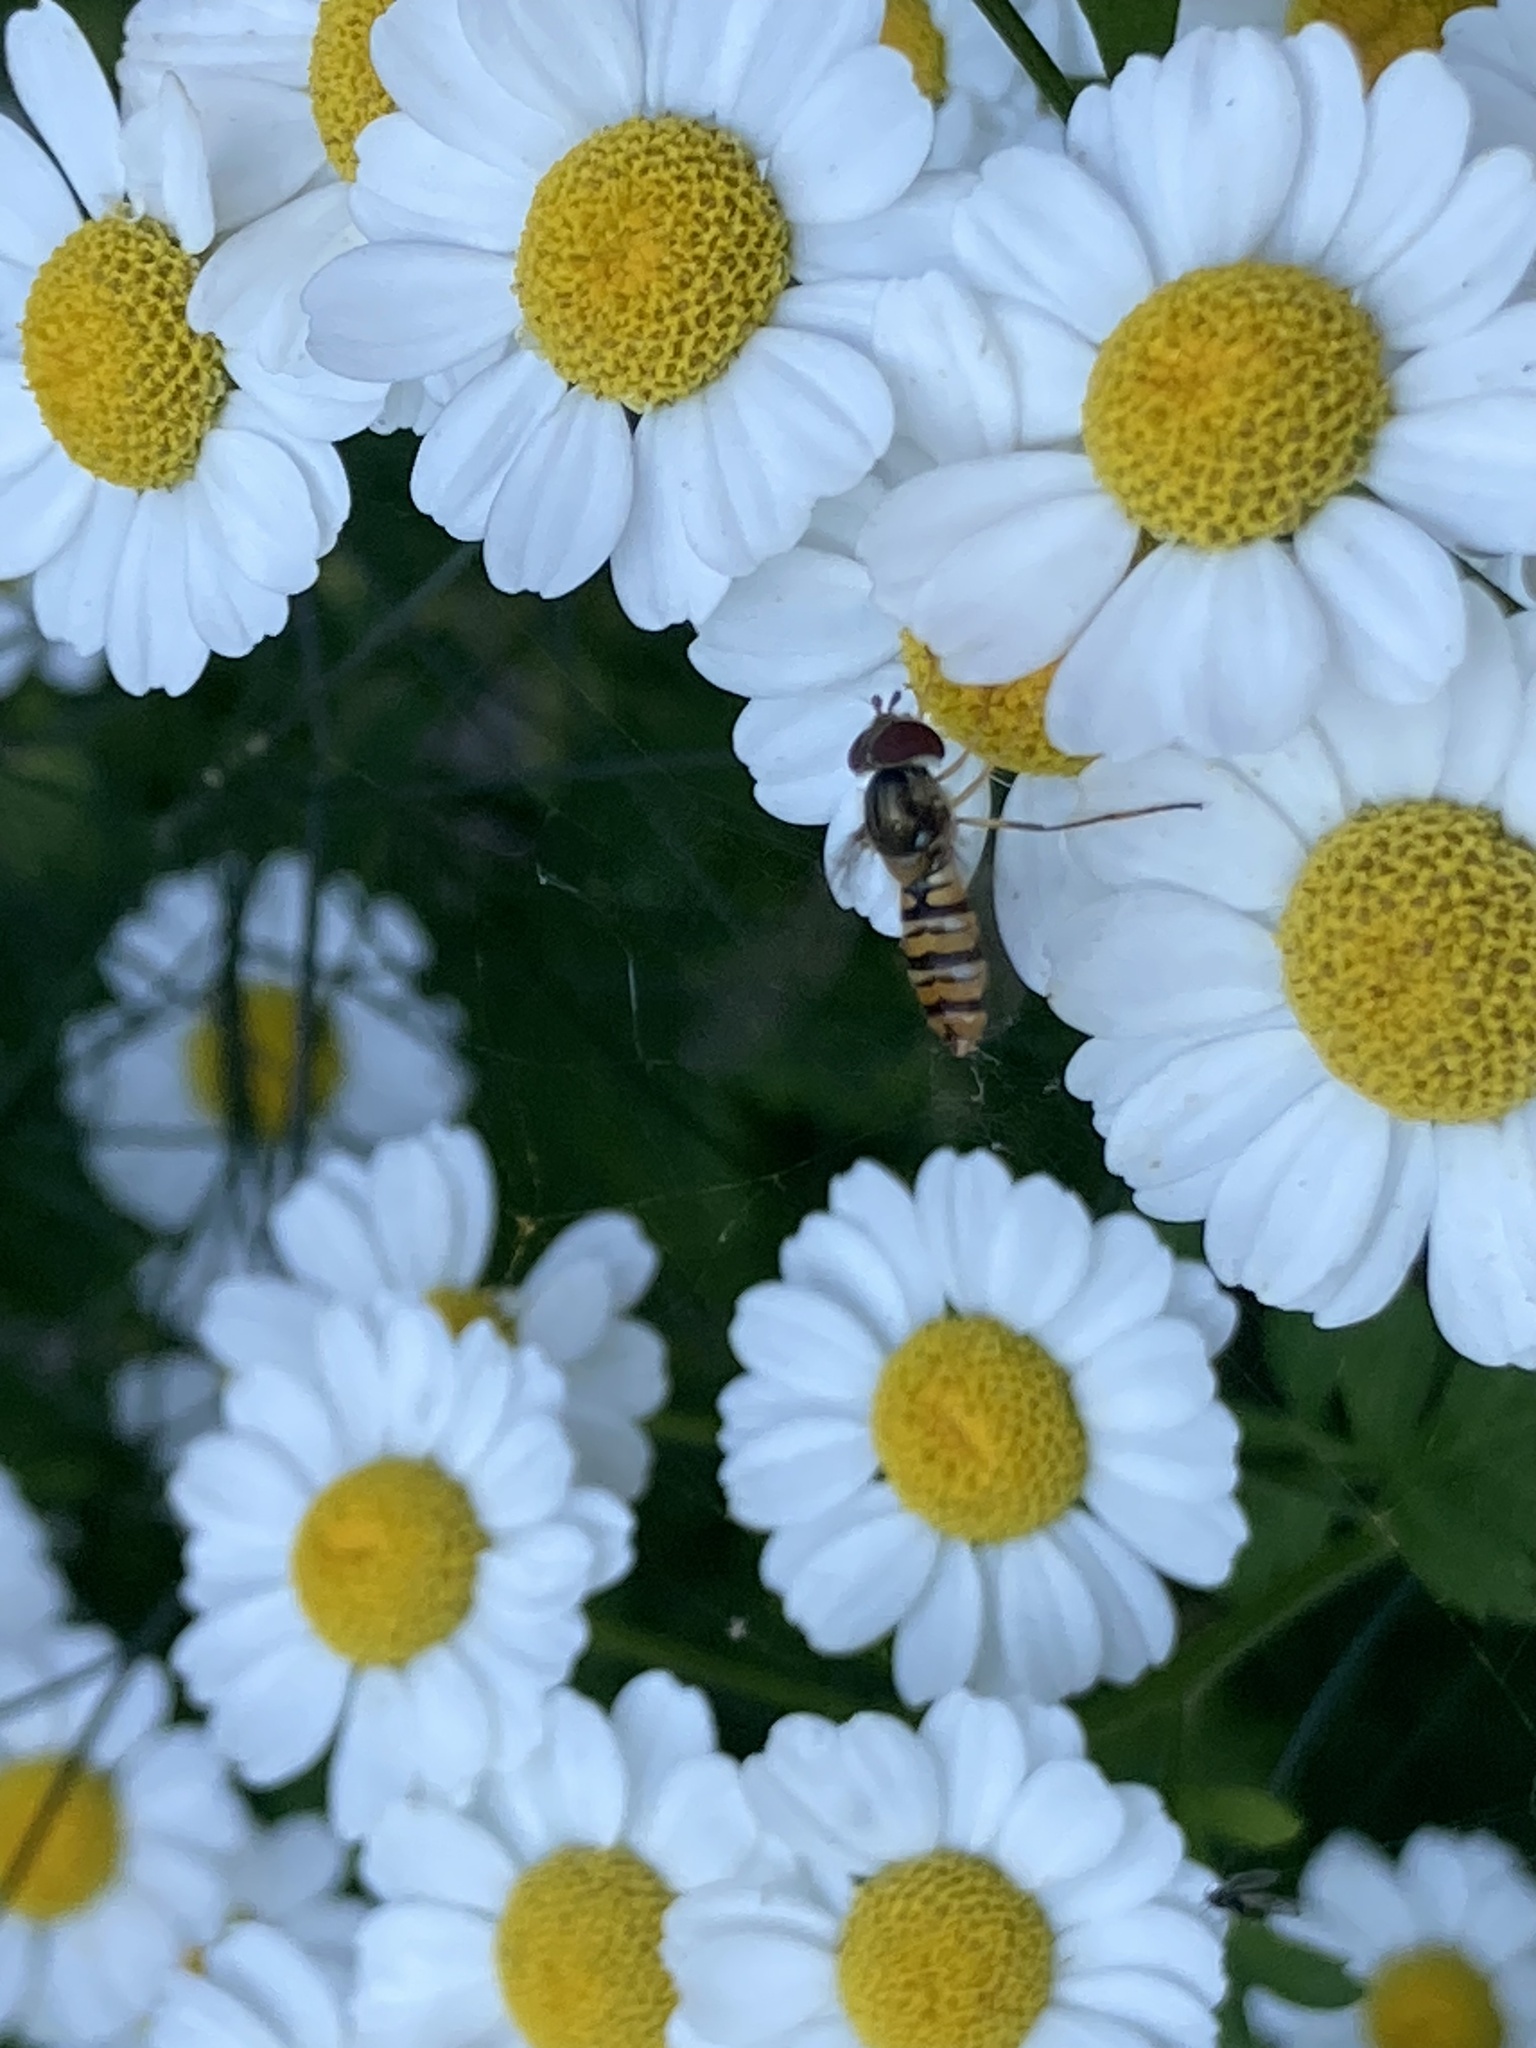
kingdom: Animalia
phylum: Arthropoda
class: Insecta
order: Diptera
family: Syrphidae
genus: Episyrphus
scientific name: Episyrphus balteatus
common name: Marmalade hoverfly
